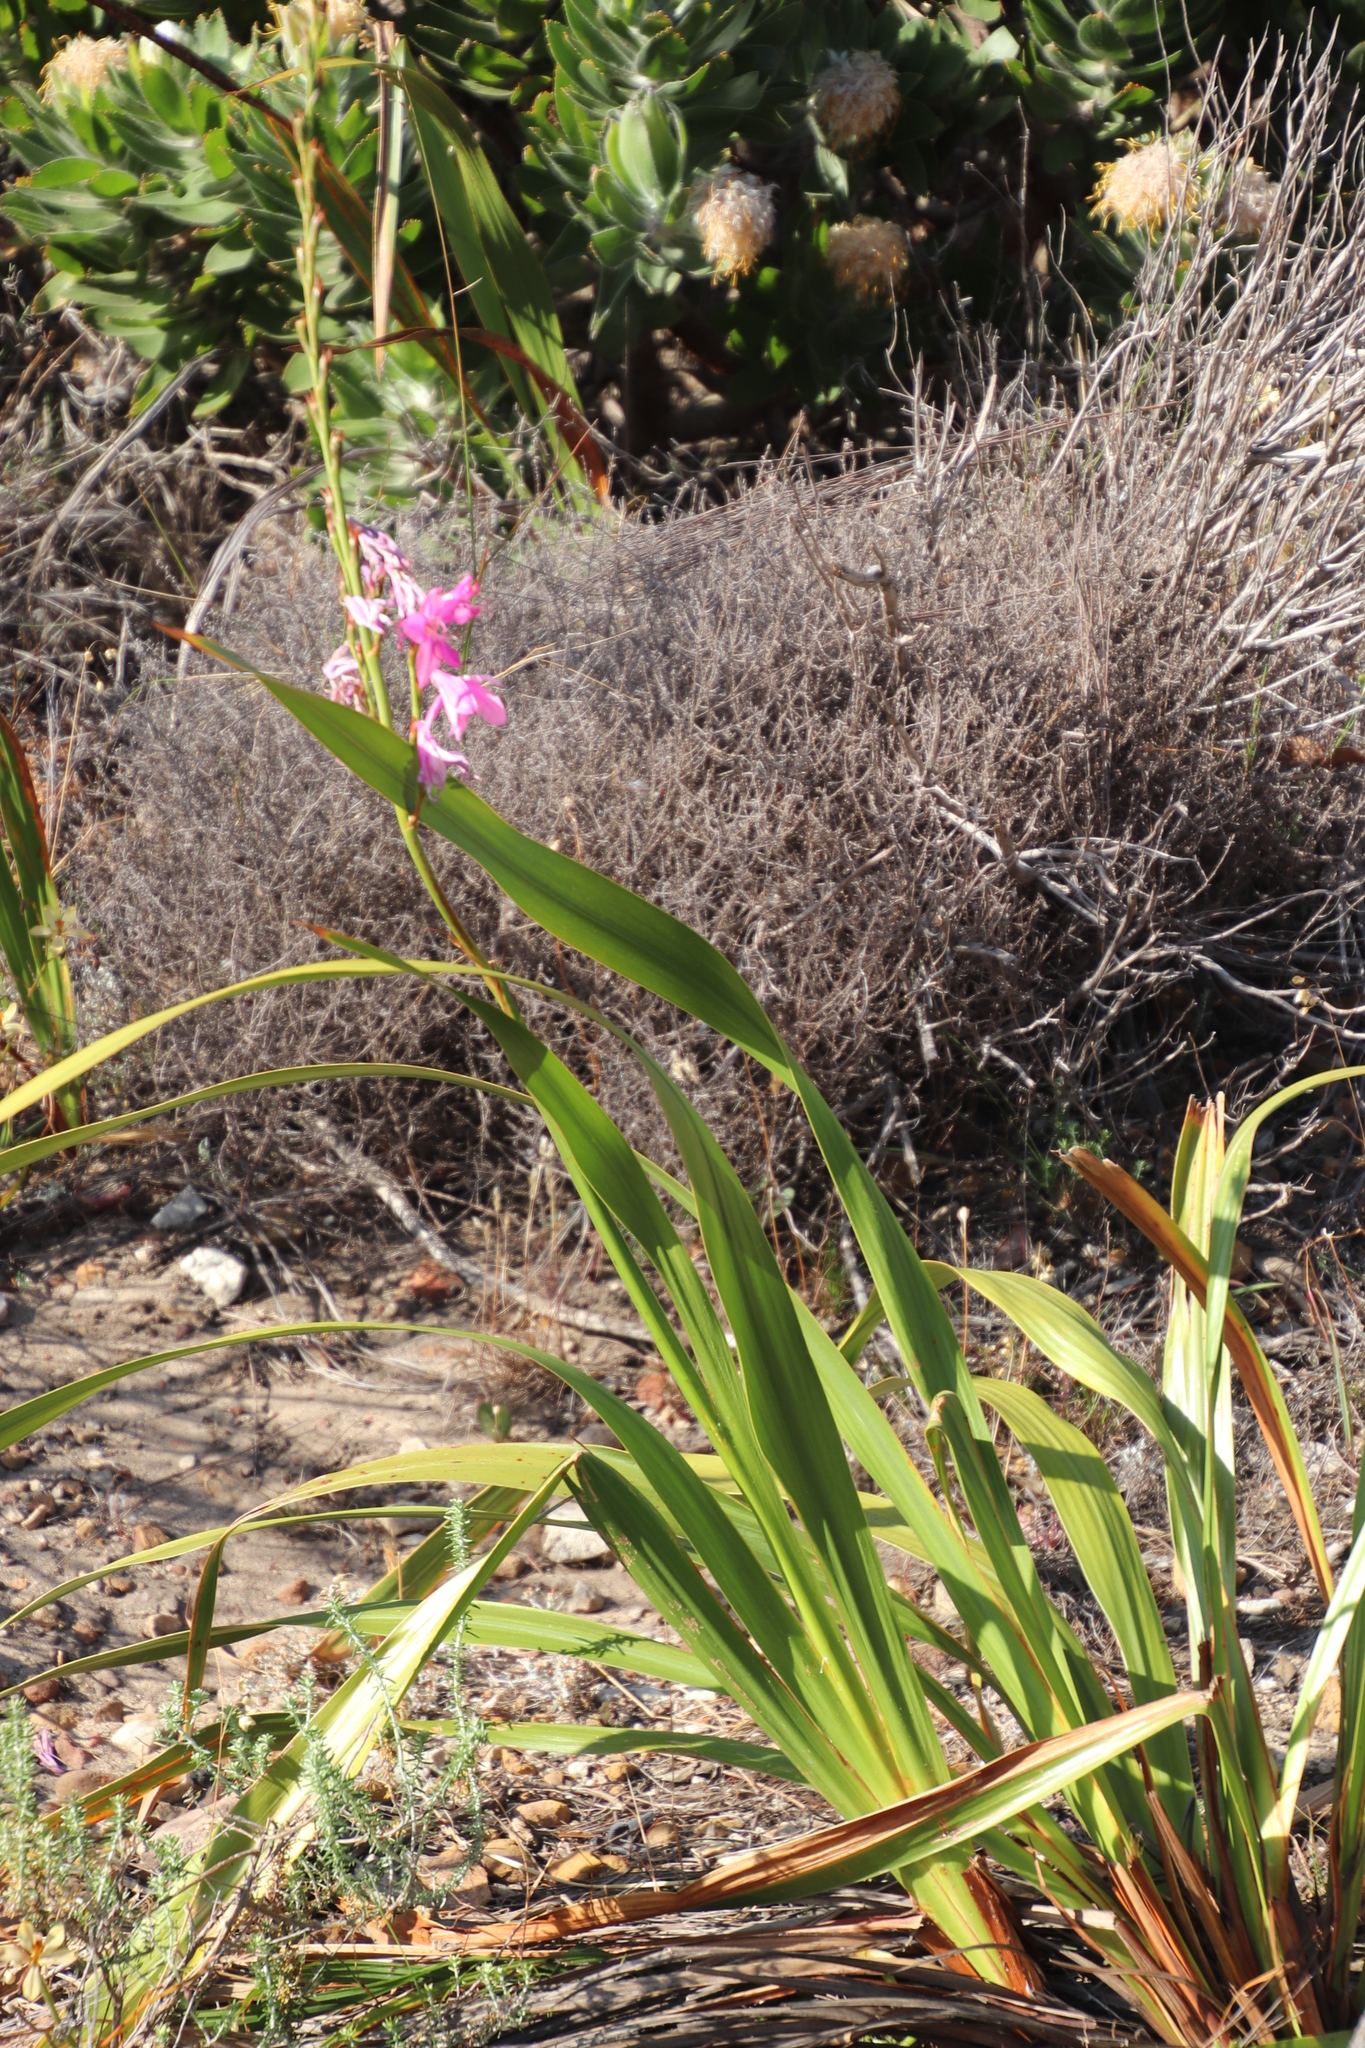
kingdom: Plantae
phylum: Tracheophyta
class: Liliopsida
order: Asparagales
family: Iridaceae
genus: Watsonia
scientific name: Watsonia borbonica
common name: Bugle-lily
